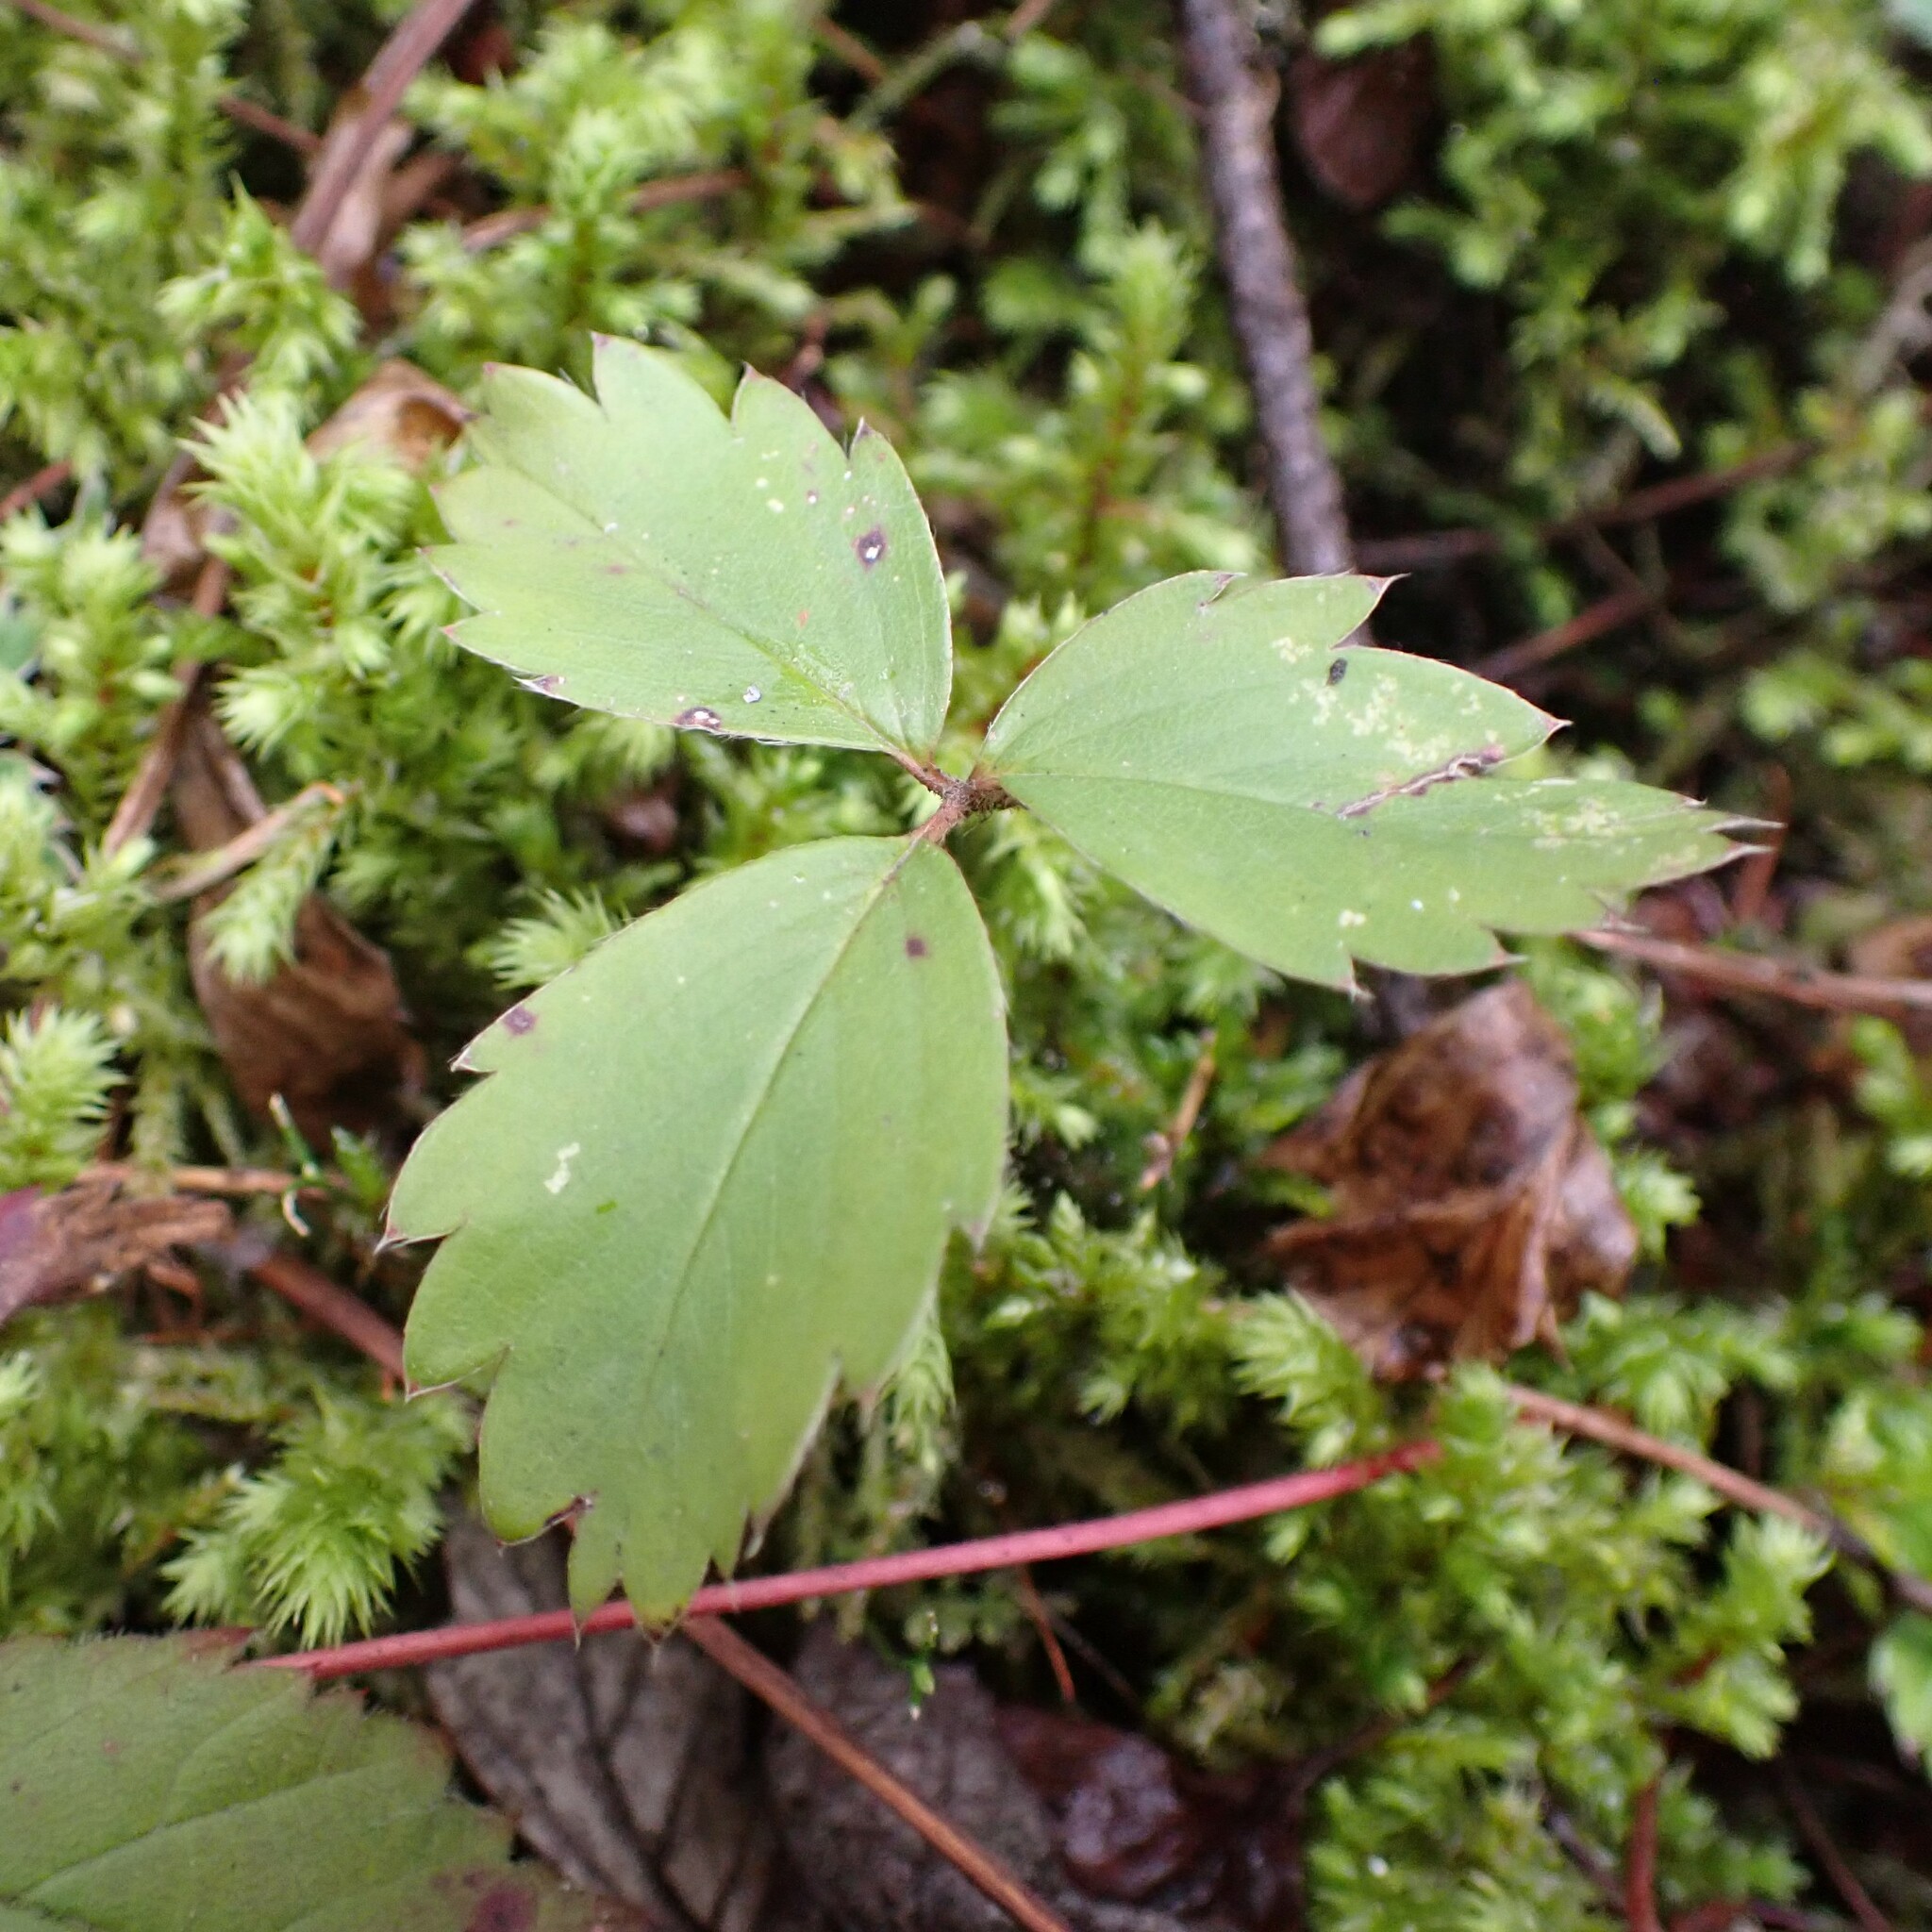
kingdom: Plantae
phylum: Tracheophyta
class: Magnoliopsida
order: Rosales
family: Rosaceae
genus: Fragaria
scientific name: Fragaria virginiana
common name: Thickleaved wild strawberry
